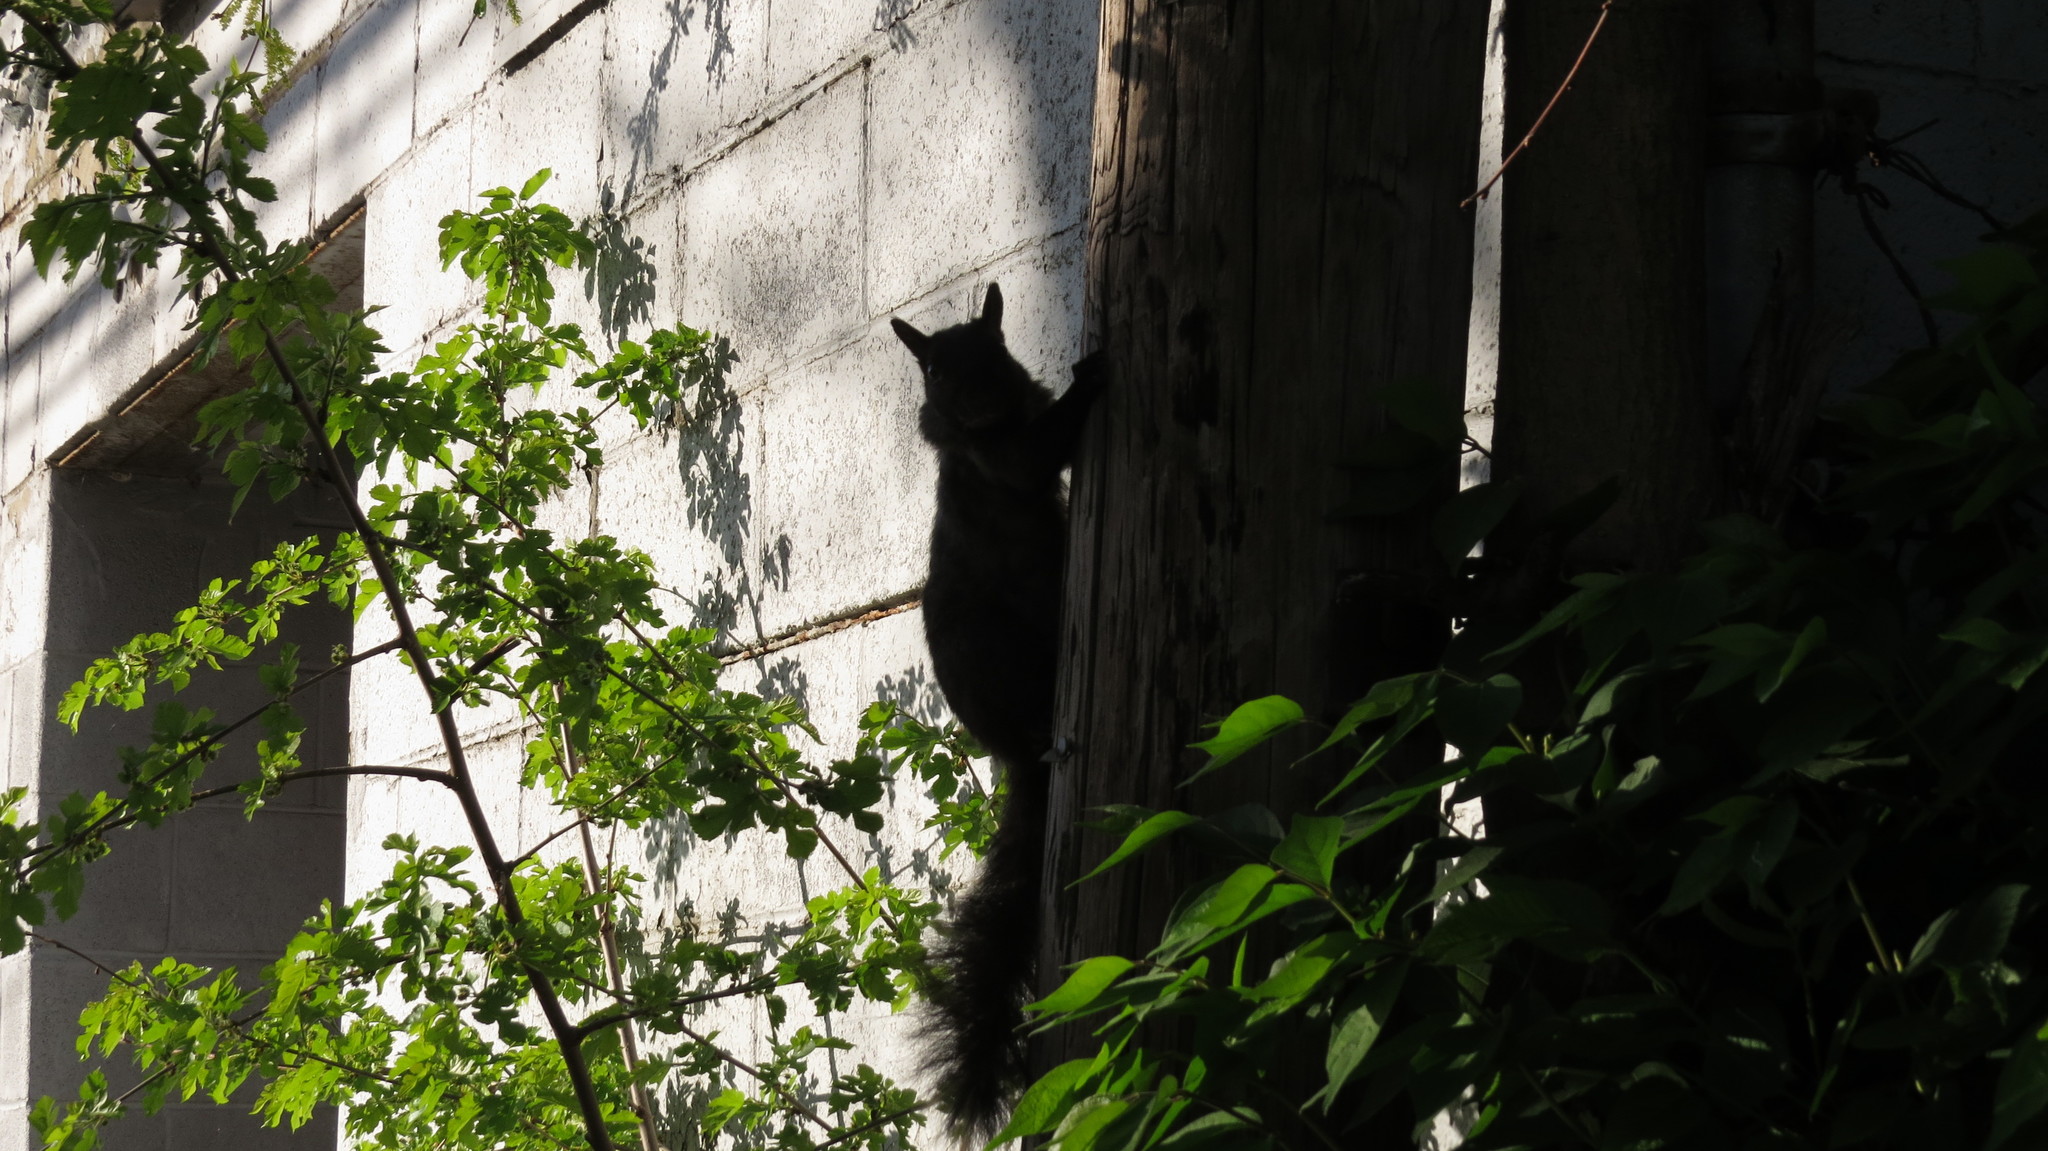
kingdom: Animalia
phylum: Chordata
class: Mammalia
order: Rodentia
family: Sciuridae
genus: Sciurus
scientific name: Sciurus carolinensis
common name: Eastern gray squirrel
